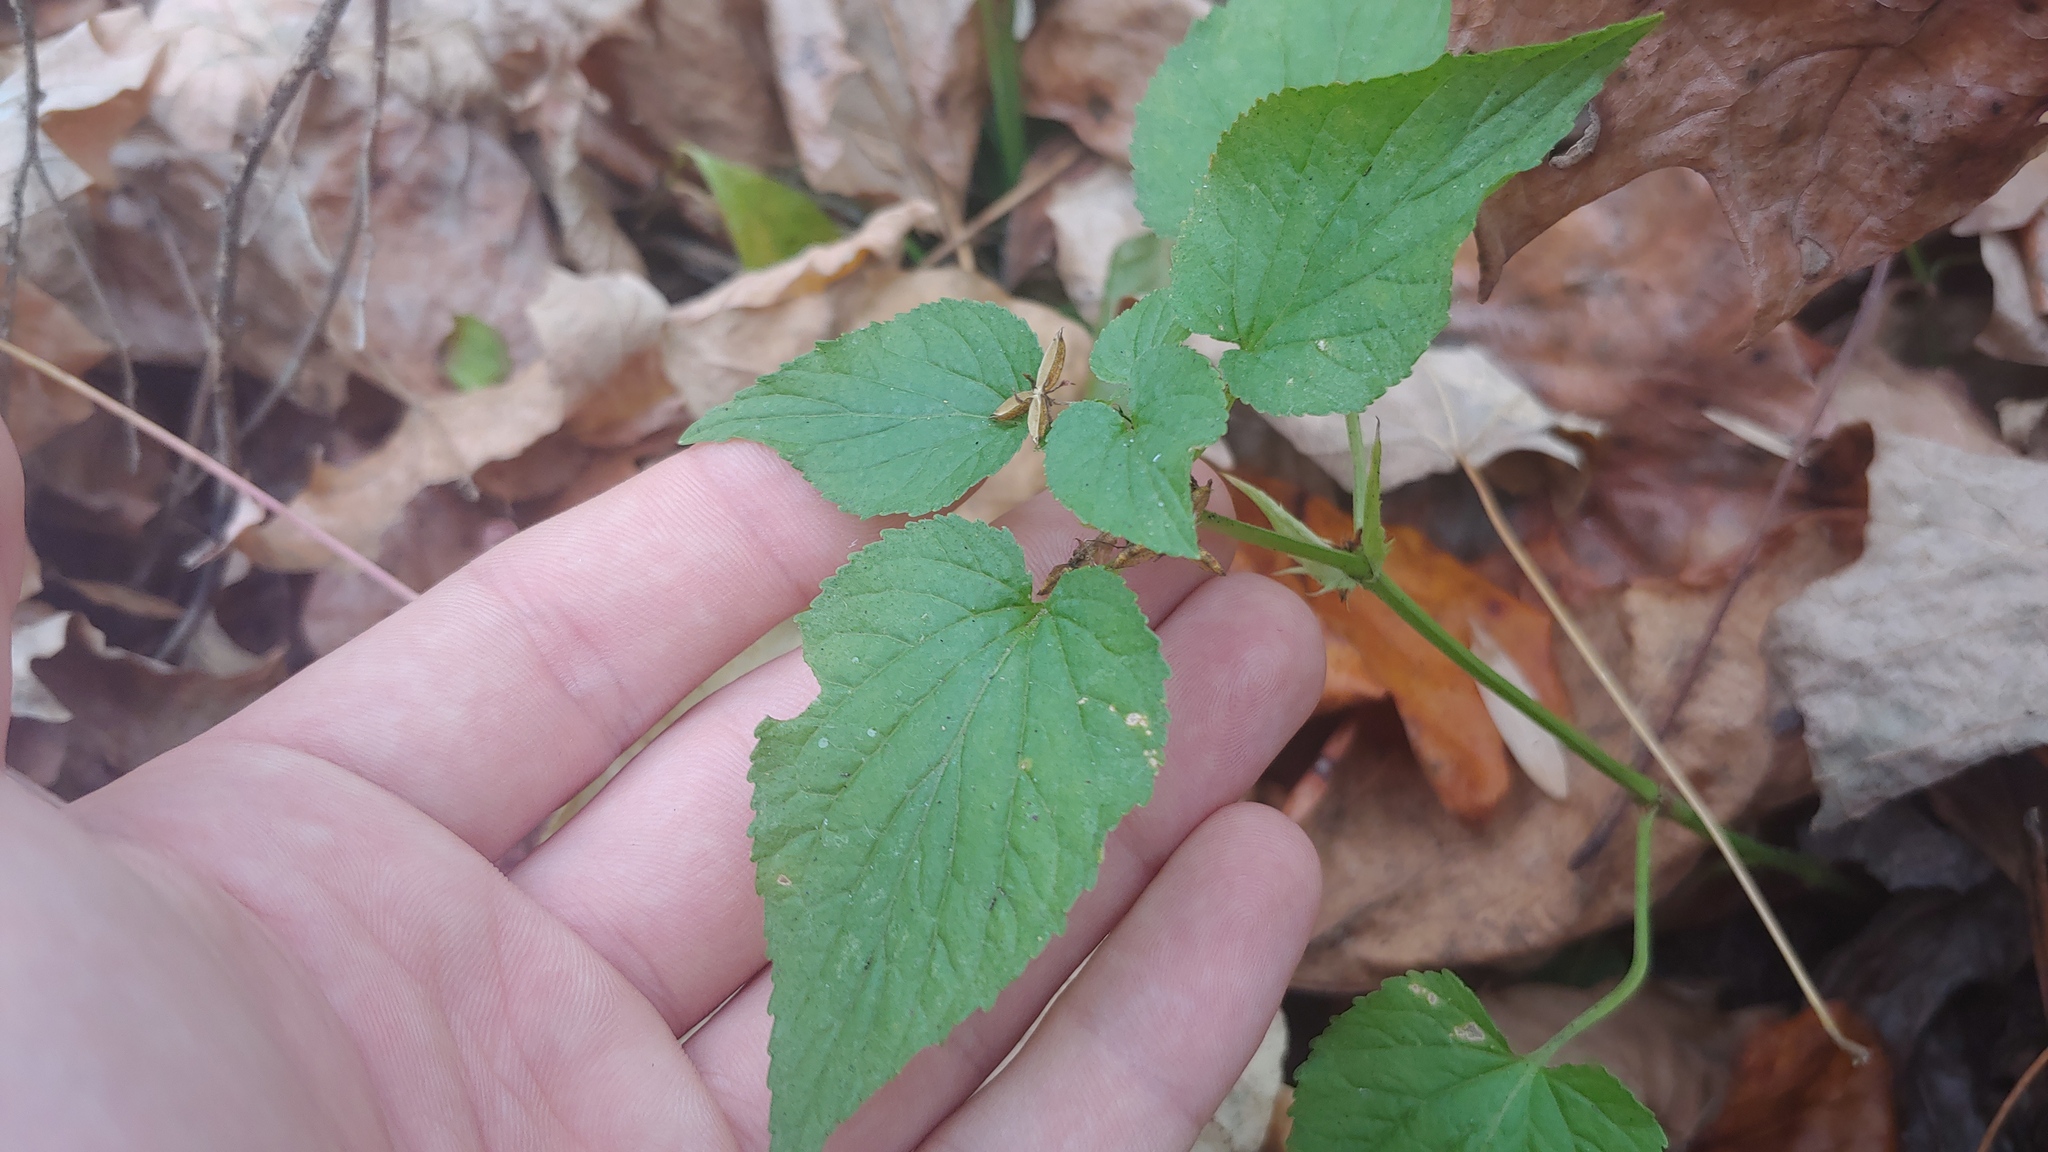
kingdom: Plantae
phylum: Tracheophyta
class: Magnoliopsida
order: Malpighiales
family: Violaceae
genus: Viola
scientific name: Viola striata
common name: Cream violet
